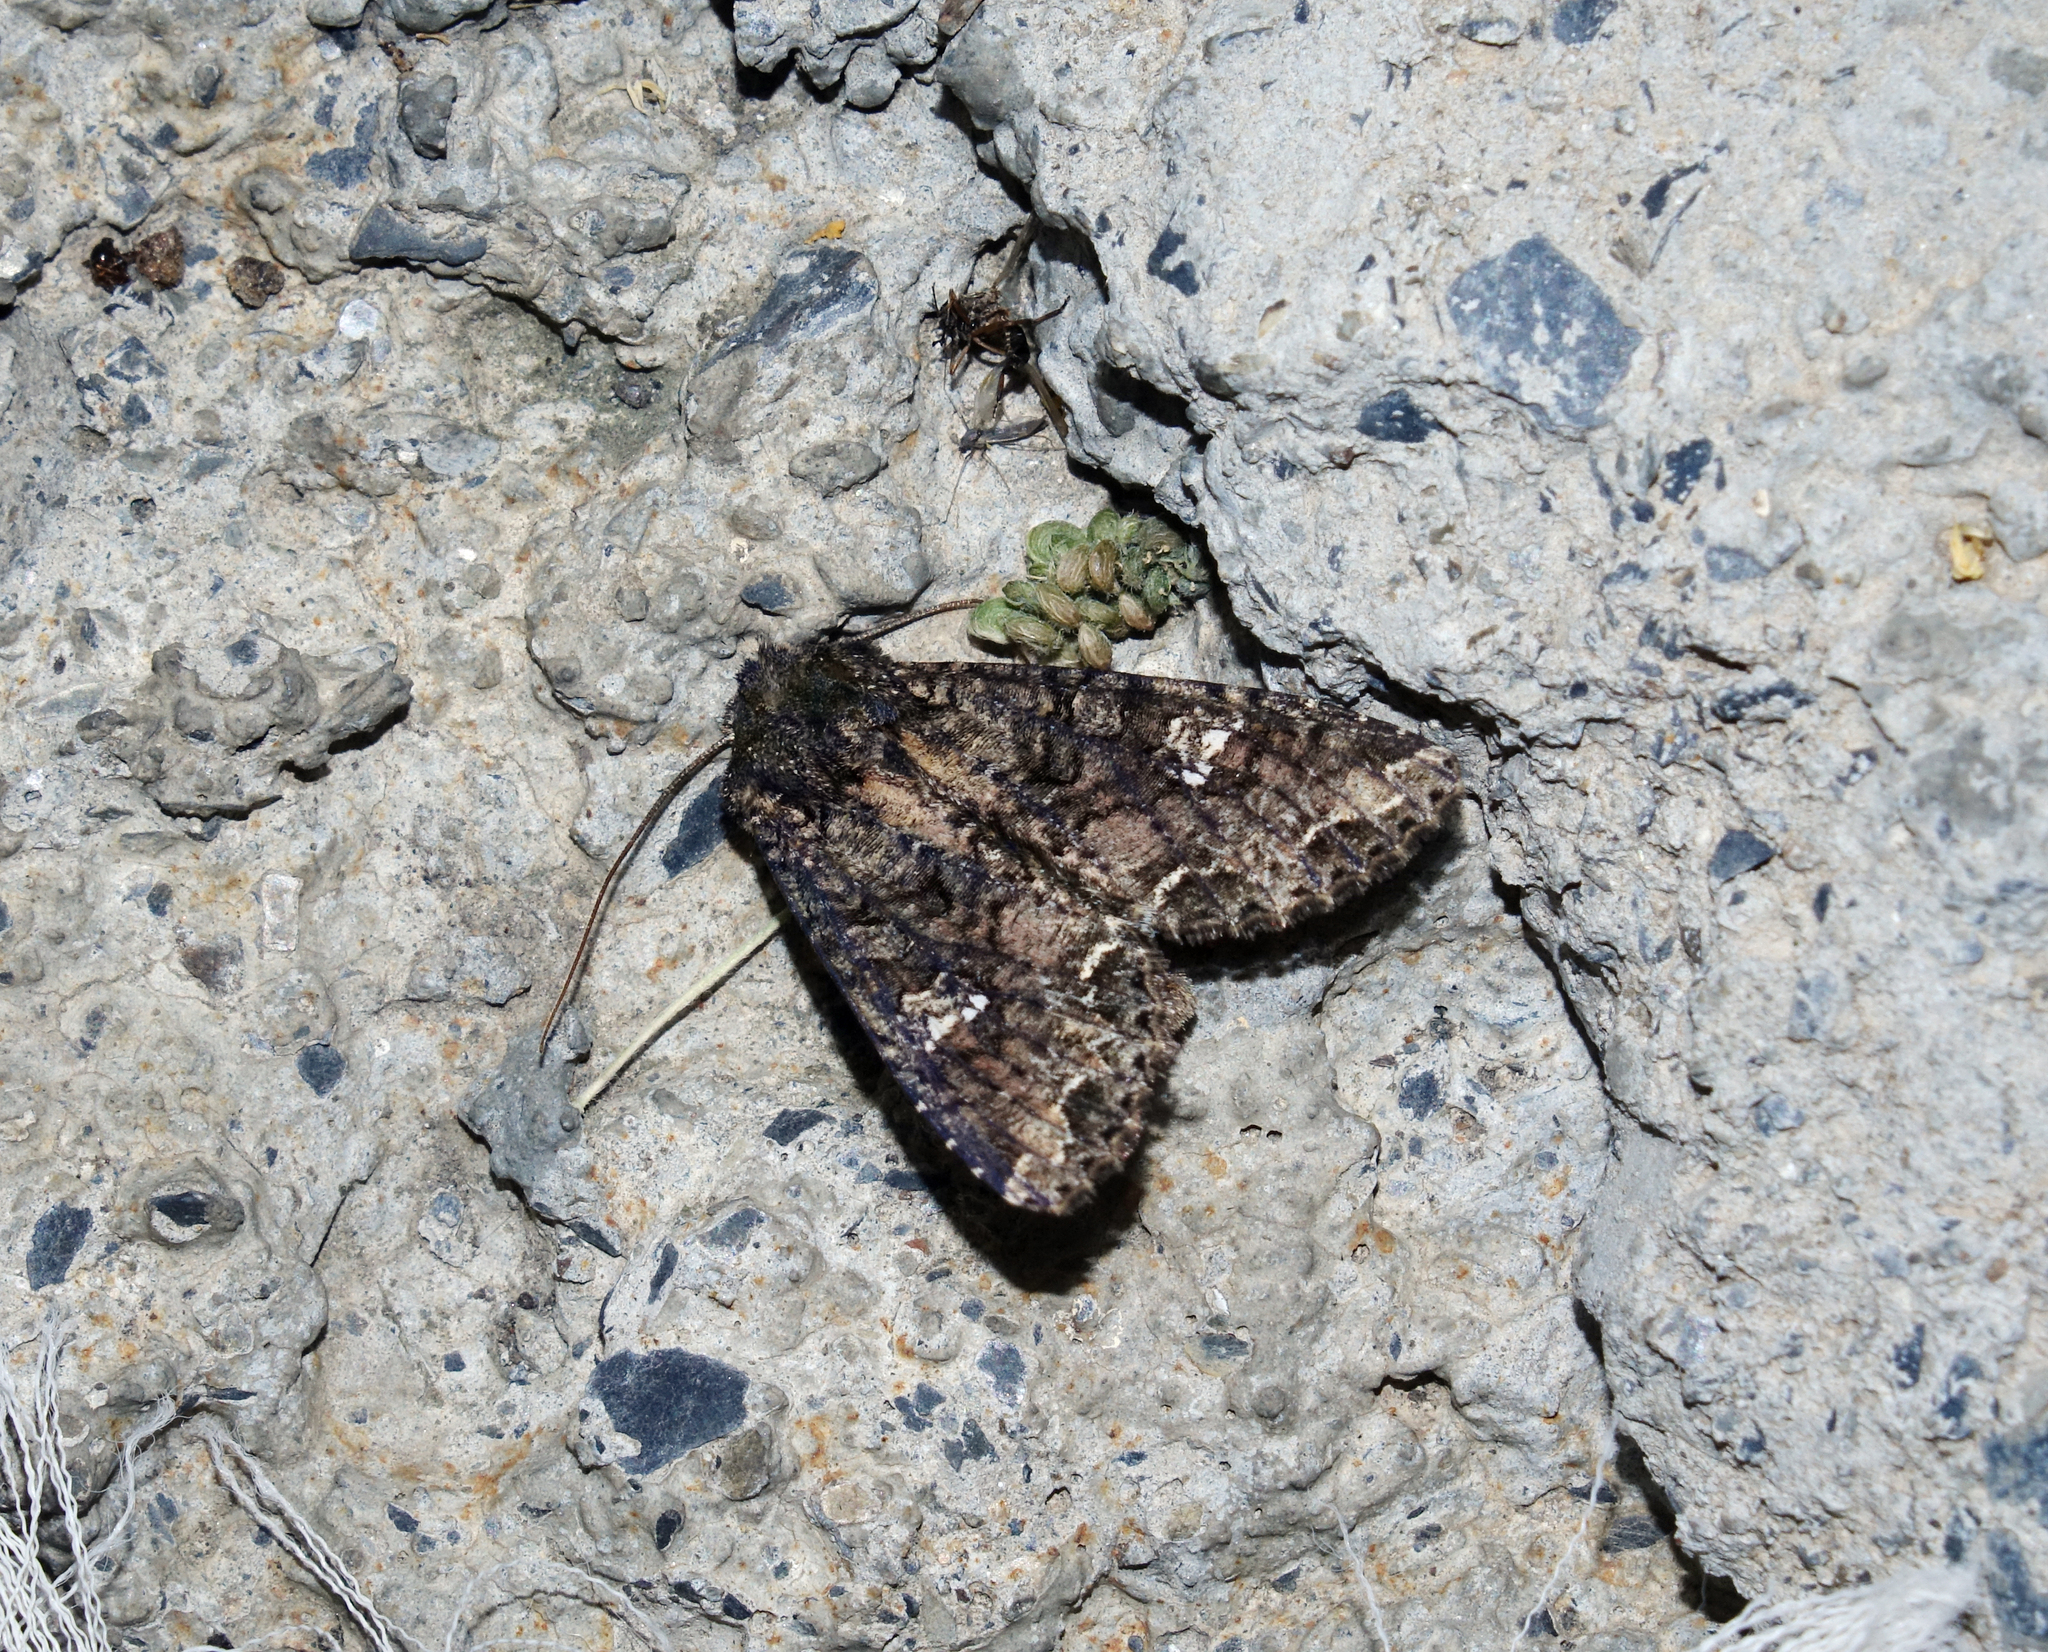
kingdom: Animalia
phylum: Arthropoda
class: Insecta
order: Lepidoptera
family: Noctuidae
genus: Mamestra
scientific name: Mamestra brassicae
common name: Cabbage moth
